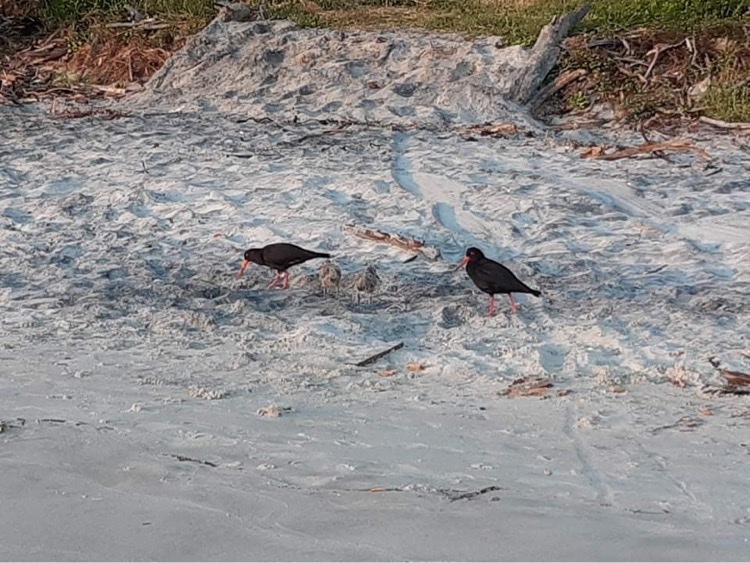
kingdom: Animalia
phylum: Chordata
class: Aves
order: Charadriiformes
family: Haematopodidae
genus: Haematopus
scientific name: Haematopus unicolor
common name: Variable oystercatcher
